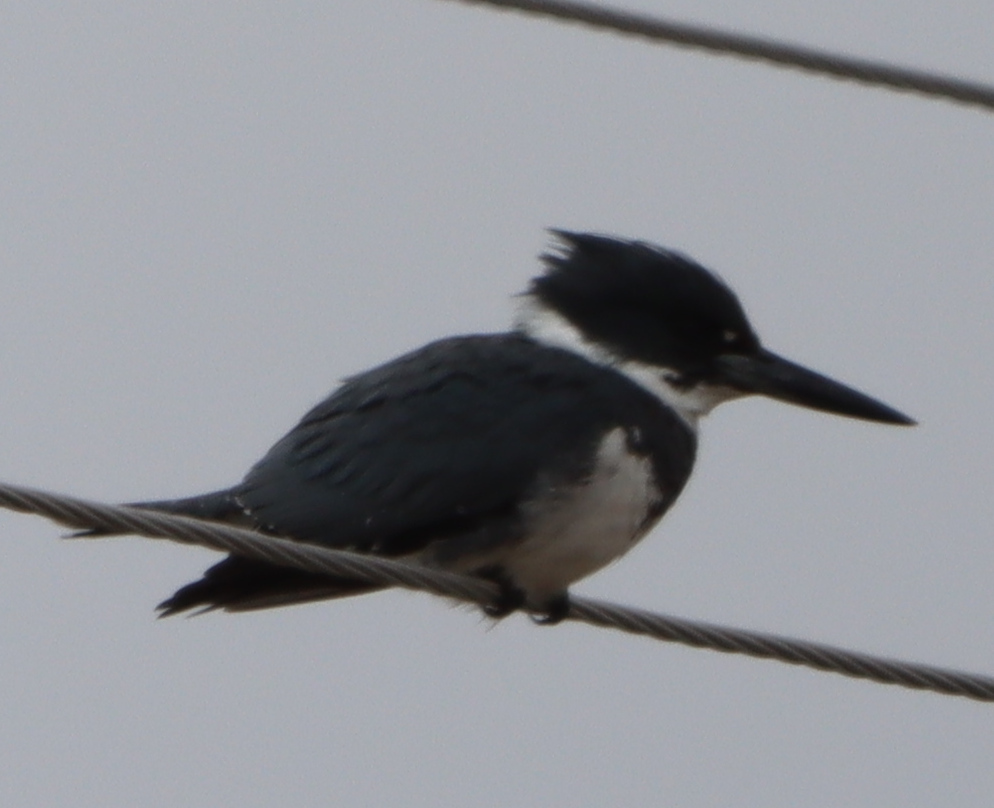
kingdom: Animalia
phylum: Chordata
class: Aves
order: Coraciiformes
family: Alcedinidae
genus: Megaceryle
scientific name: Megaceryle alcyon
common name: Belted kingfisher
